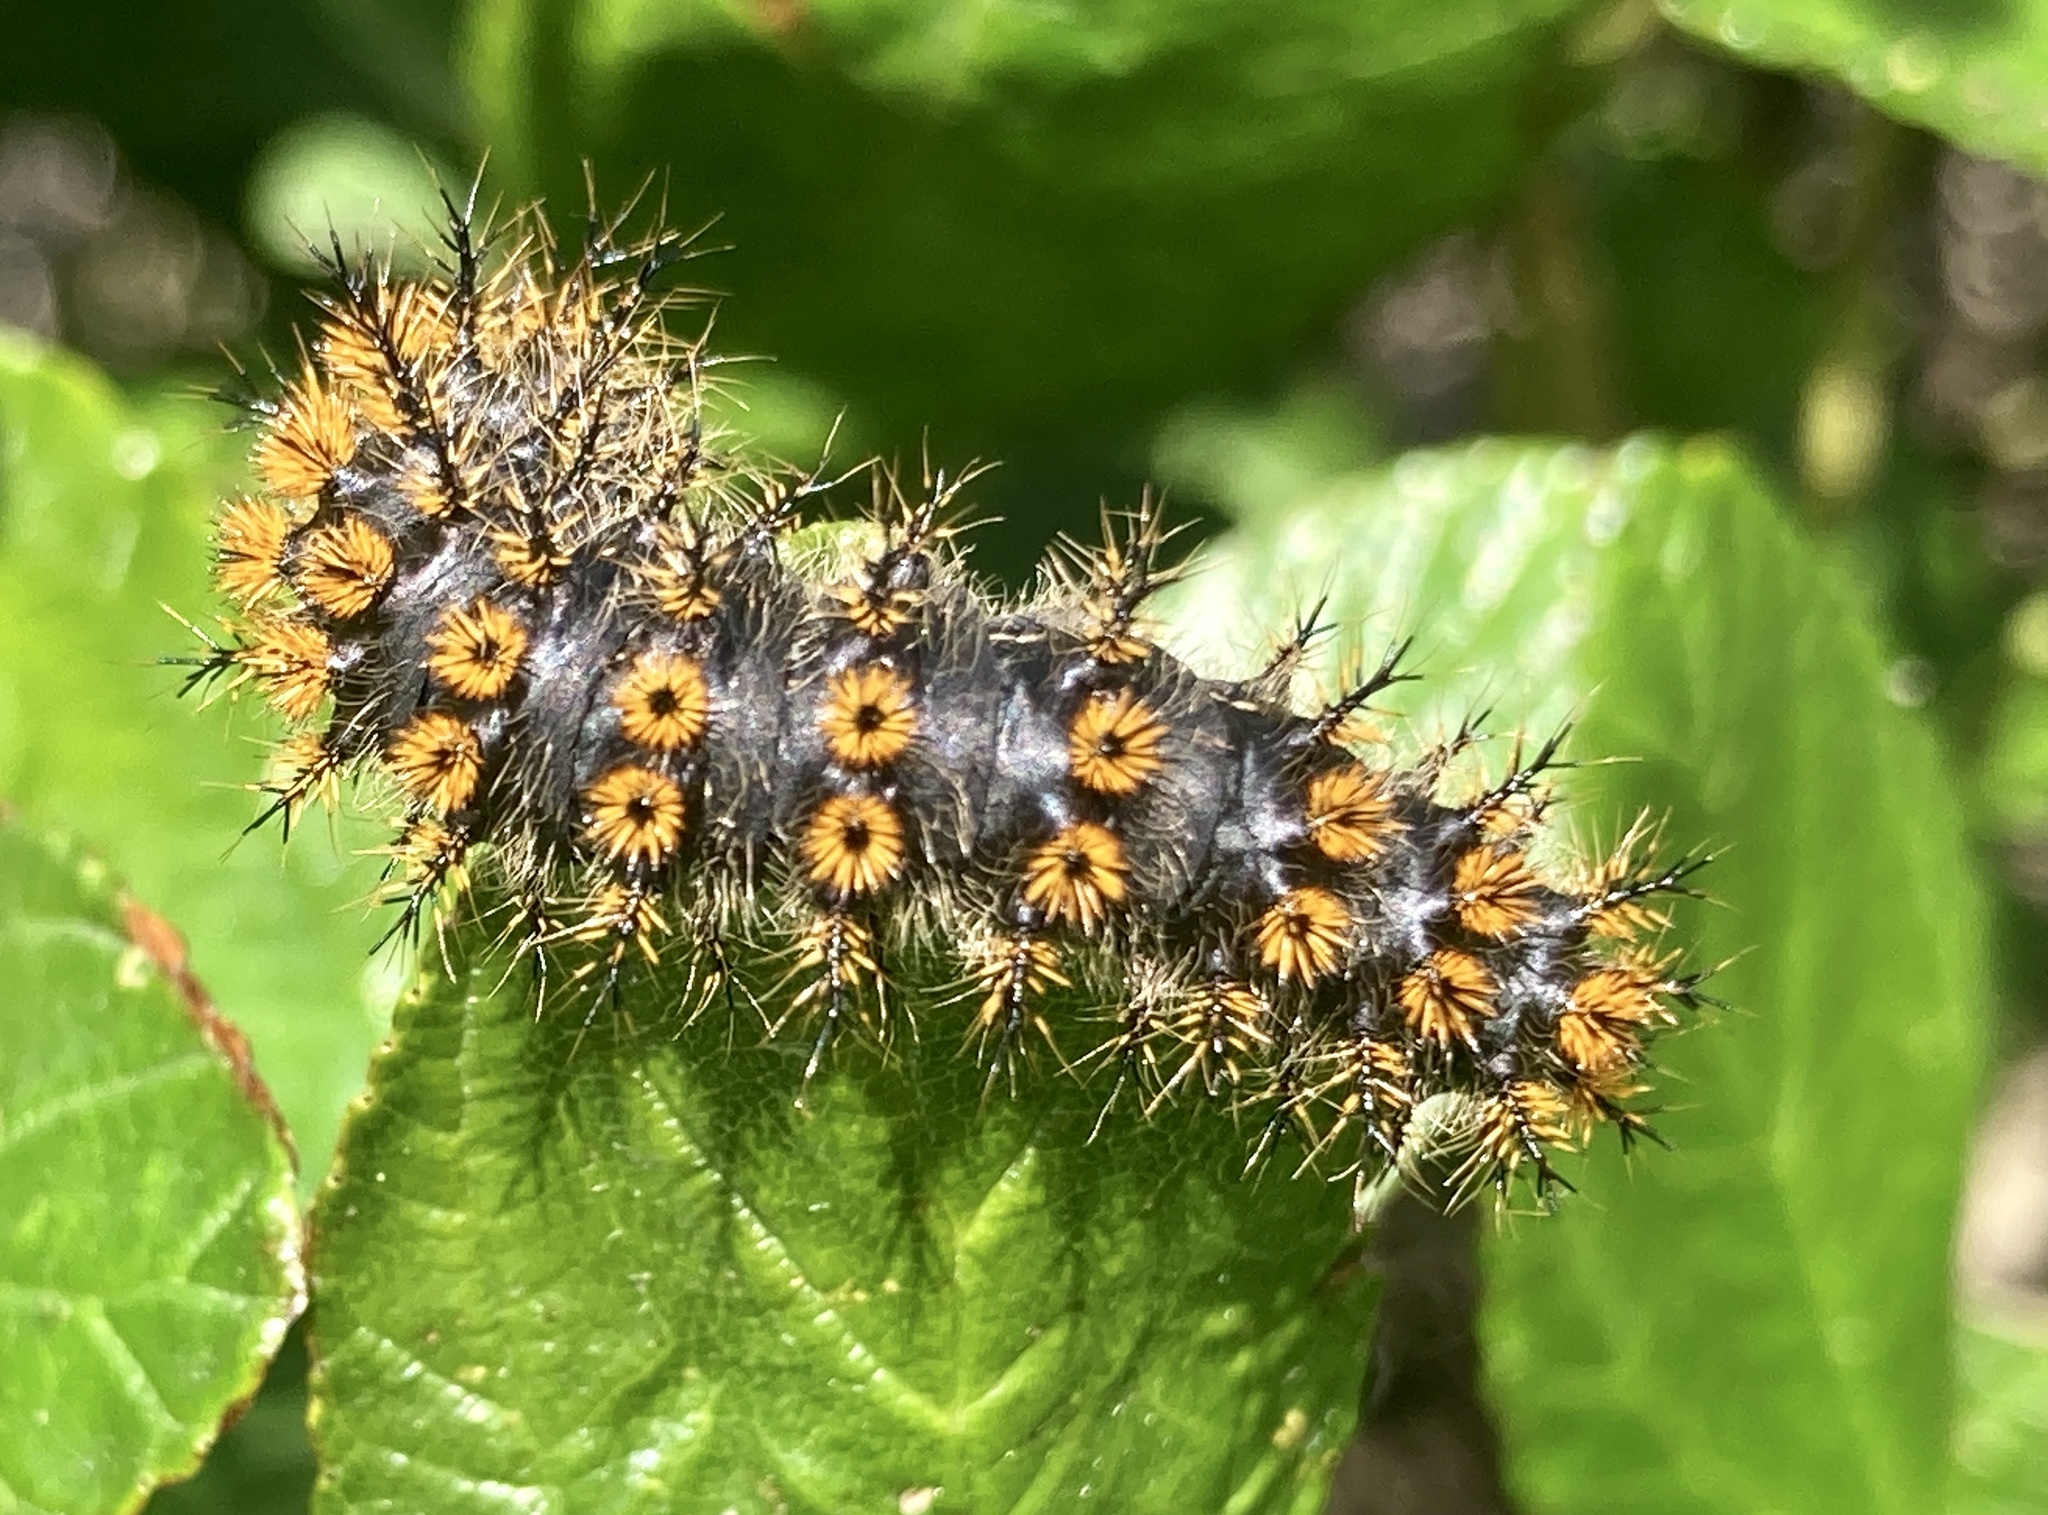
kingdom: Animalia
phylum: Arthropoda
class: Insecta
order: Lepidoptera
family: Saturniidae
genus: Hemileuca
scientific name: Hemileuca eglanterina
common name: Western sheepmoth
